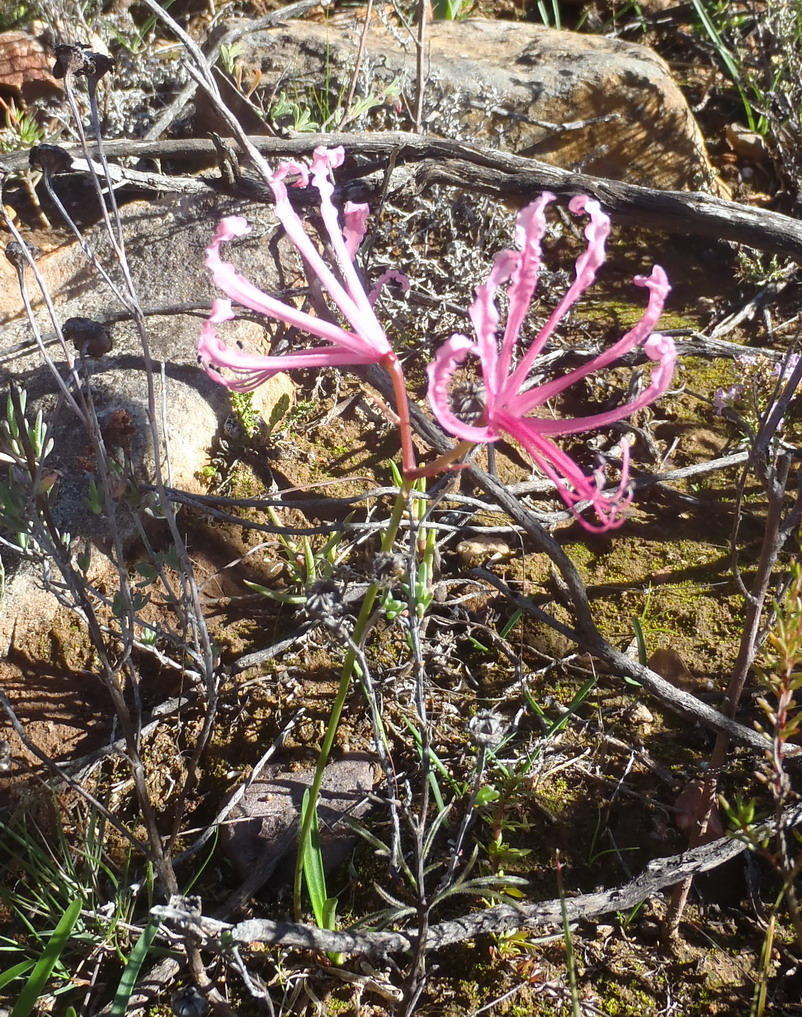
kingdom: Plantae
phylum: Tracheophyta
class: Liliopsida
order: Asparagales
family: Amaryllidaceae
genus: Nerine
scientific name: Nerine humilis
